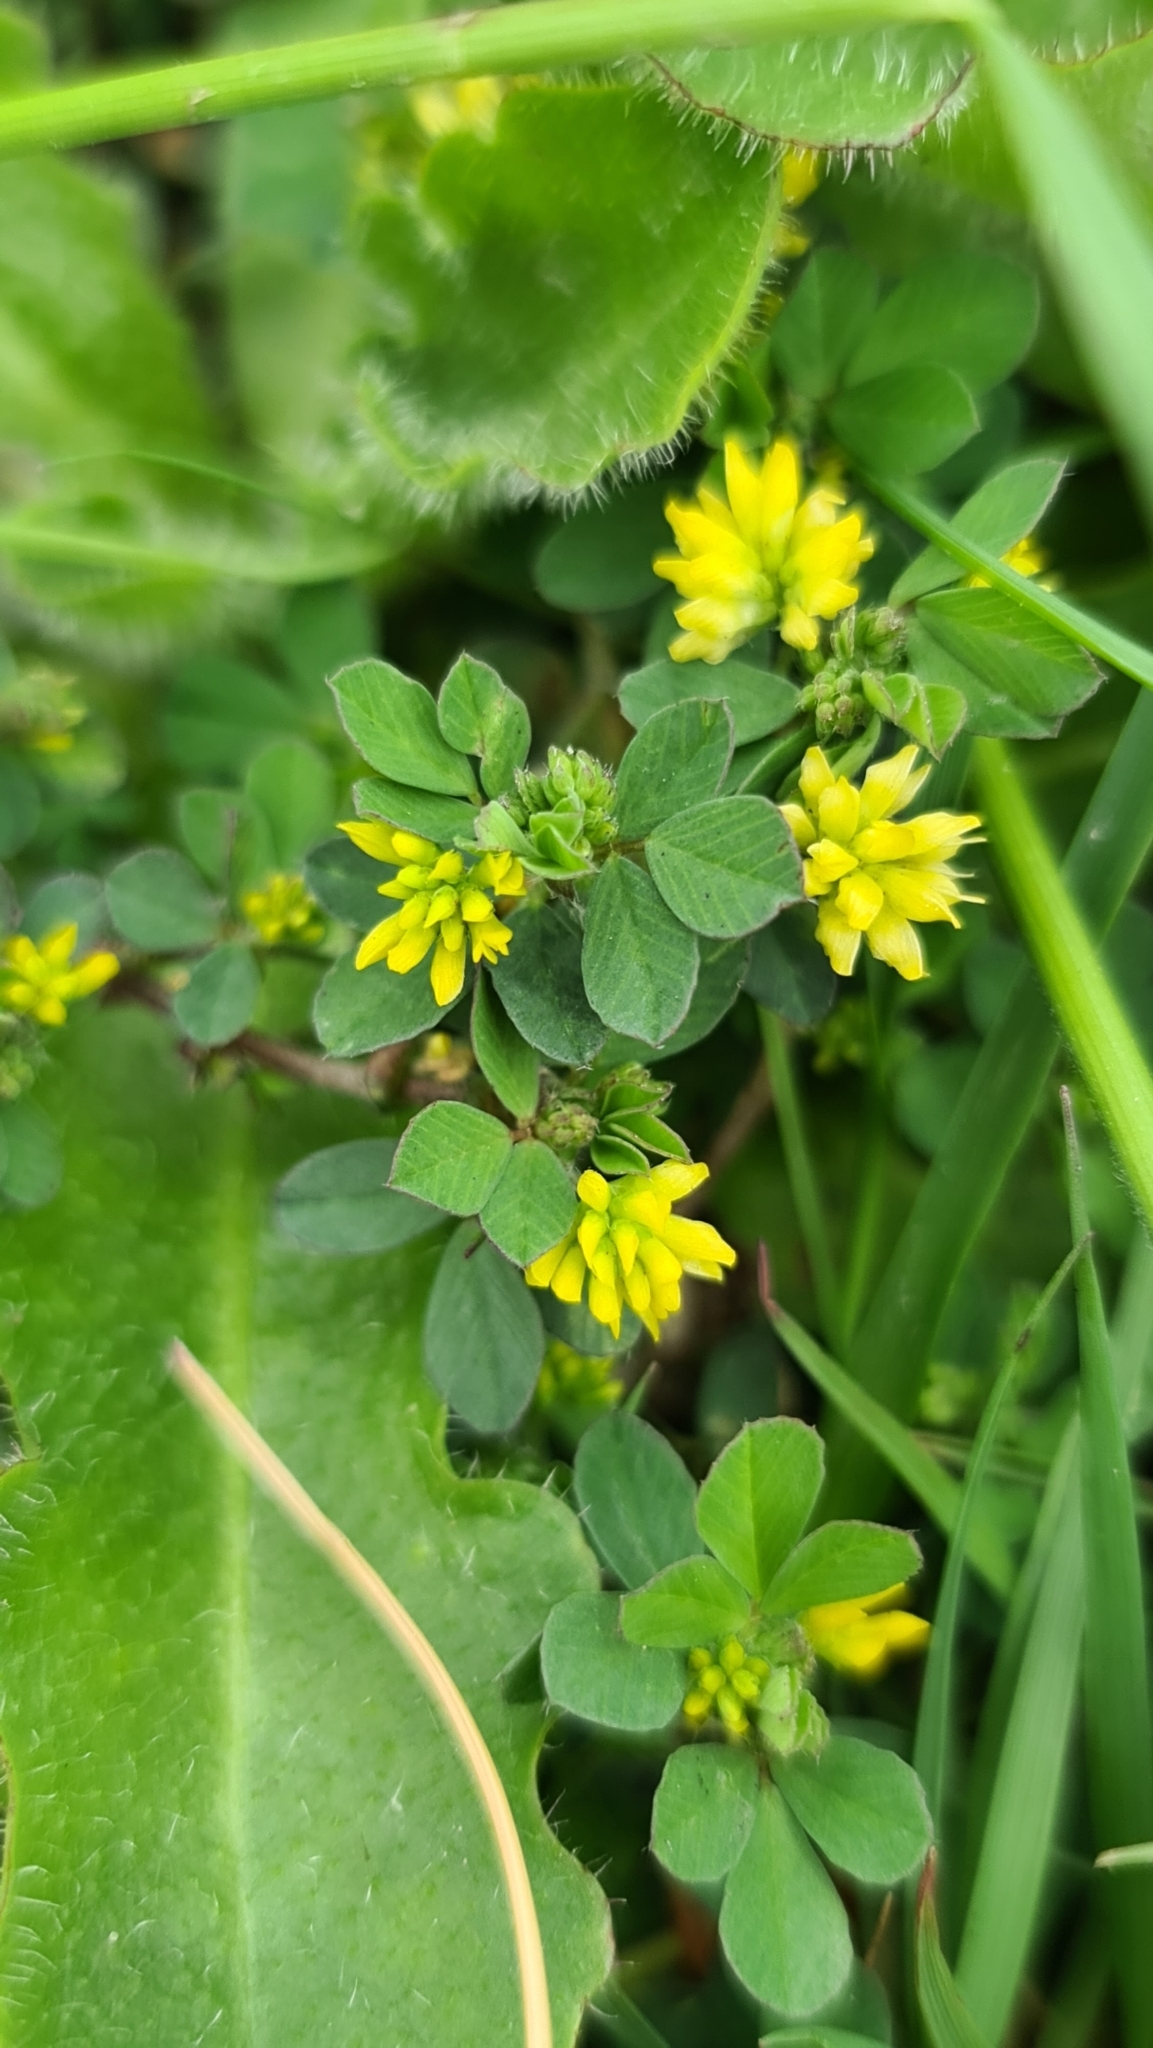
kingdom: Plantae
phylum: Tracheophyta
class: Magnoliopsida
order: Fabales
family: Fabaceae
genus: Trifolium
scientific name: Trifolium dubium
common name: Suckling clover
